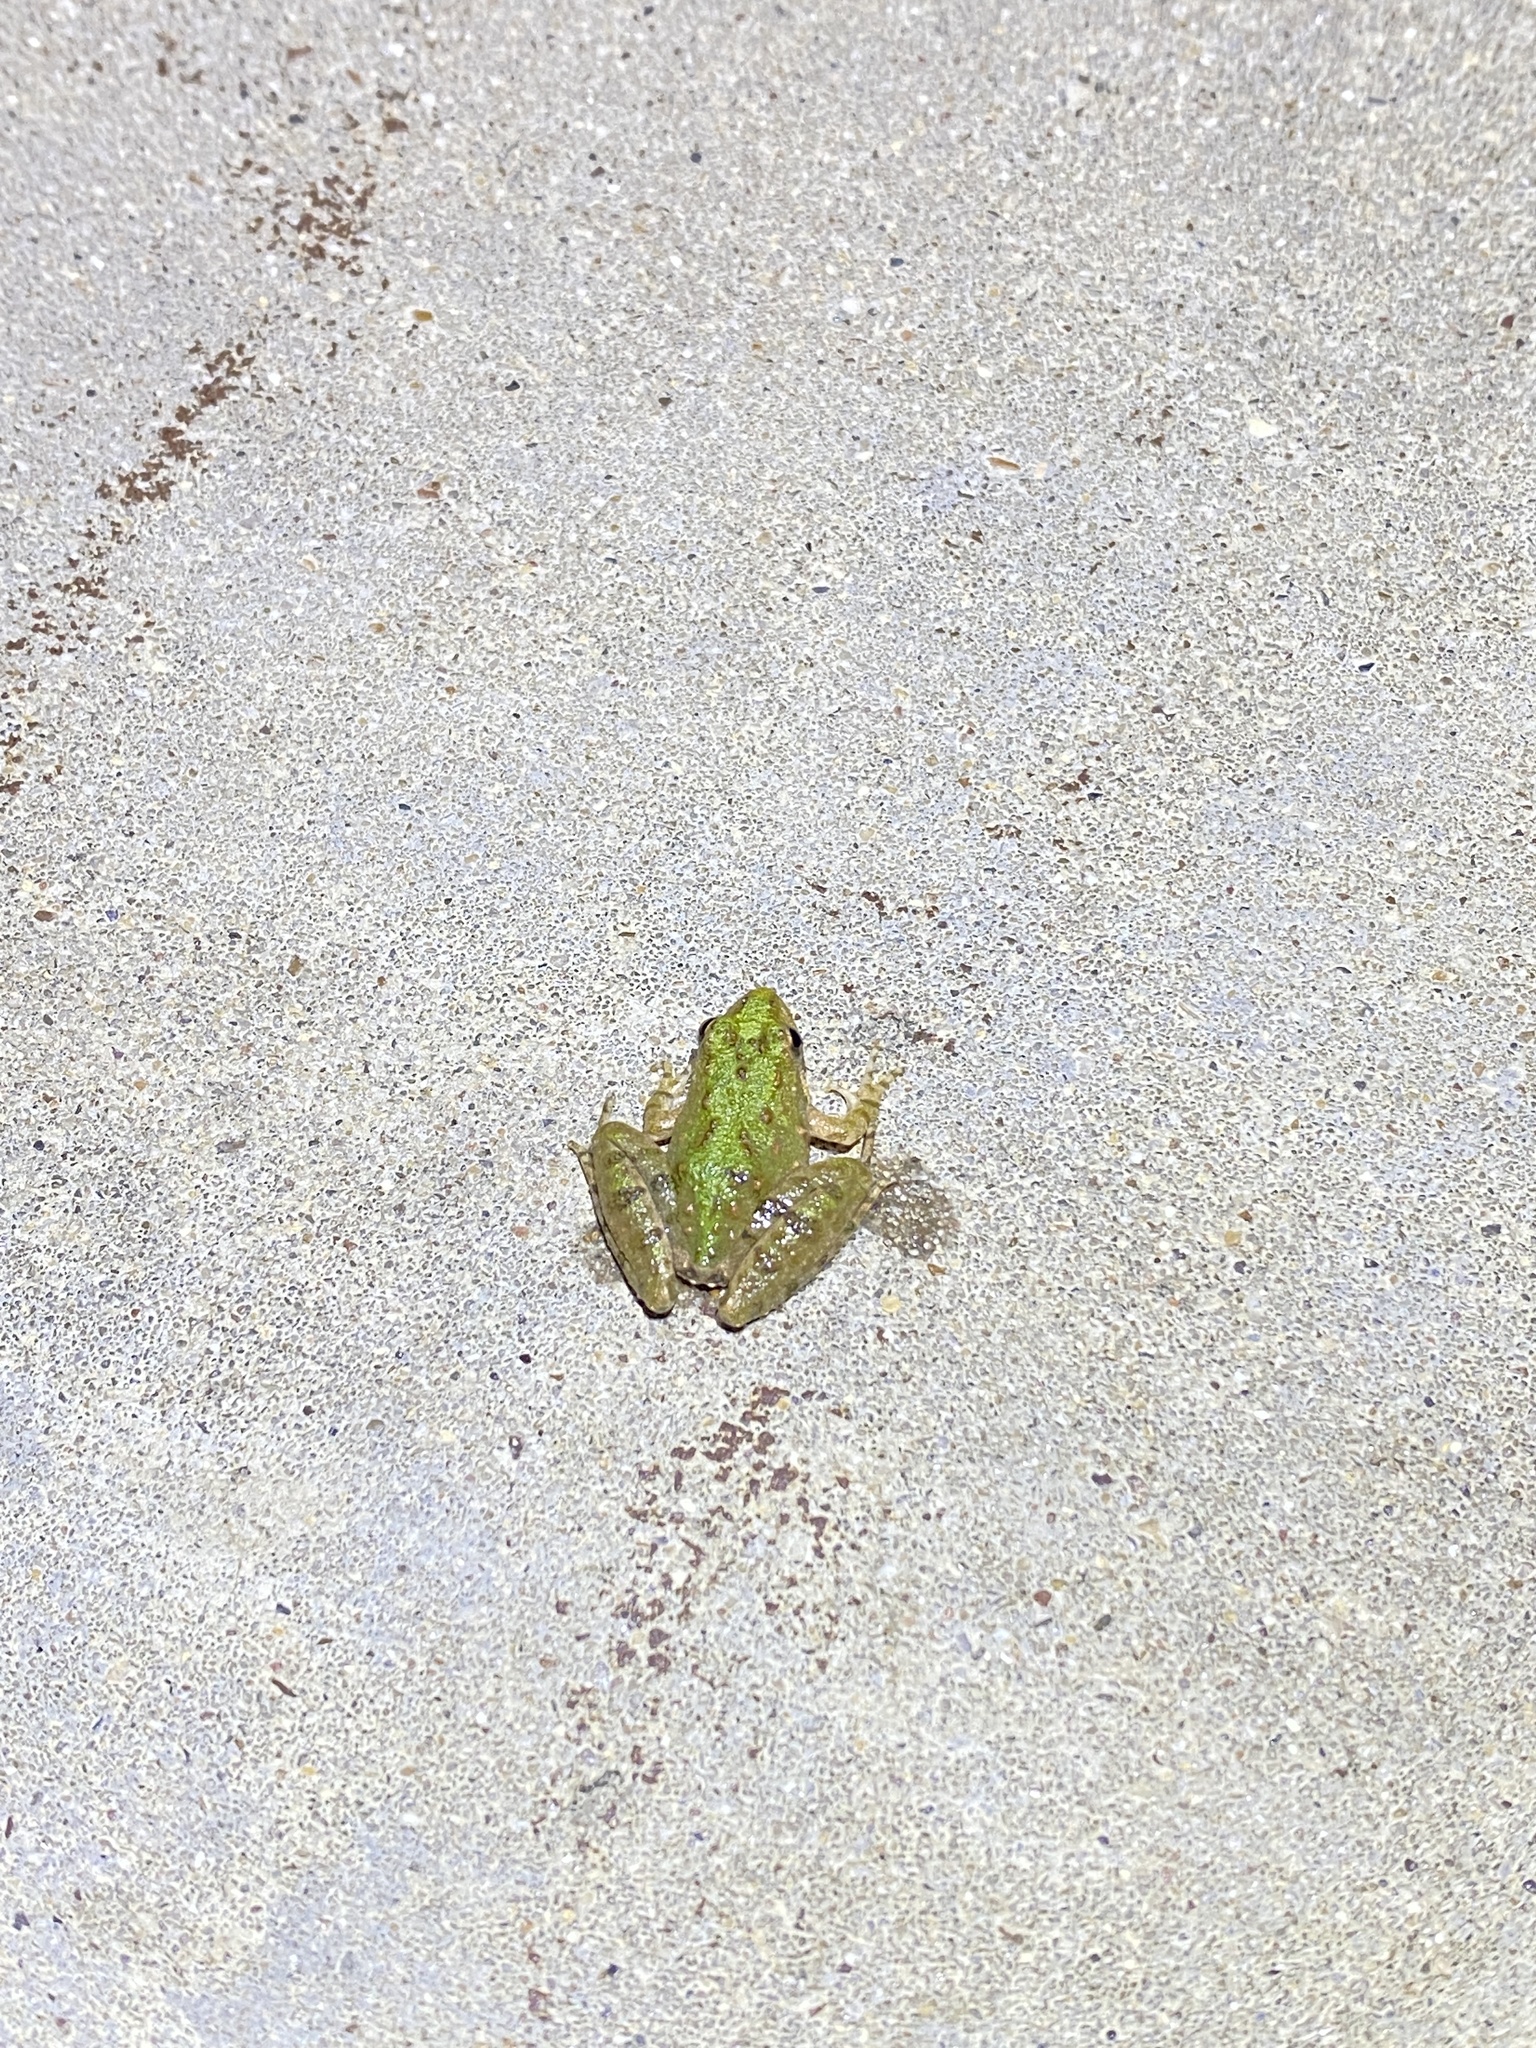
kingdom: Animalia
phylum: Chordata
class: Amphibia
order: Anura
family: Hylidae
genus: Acris
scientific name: Acris blanchardi
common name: Blanchard's cricket frog
